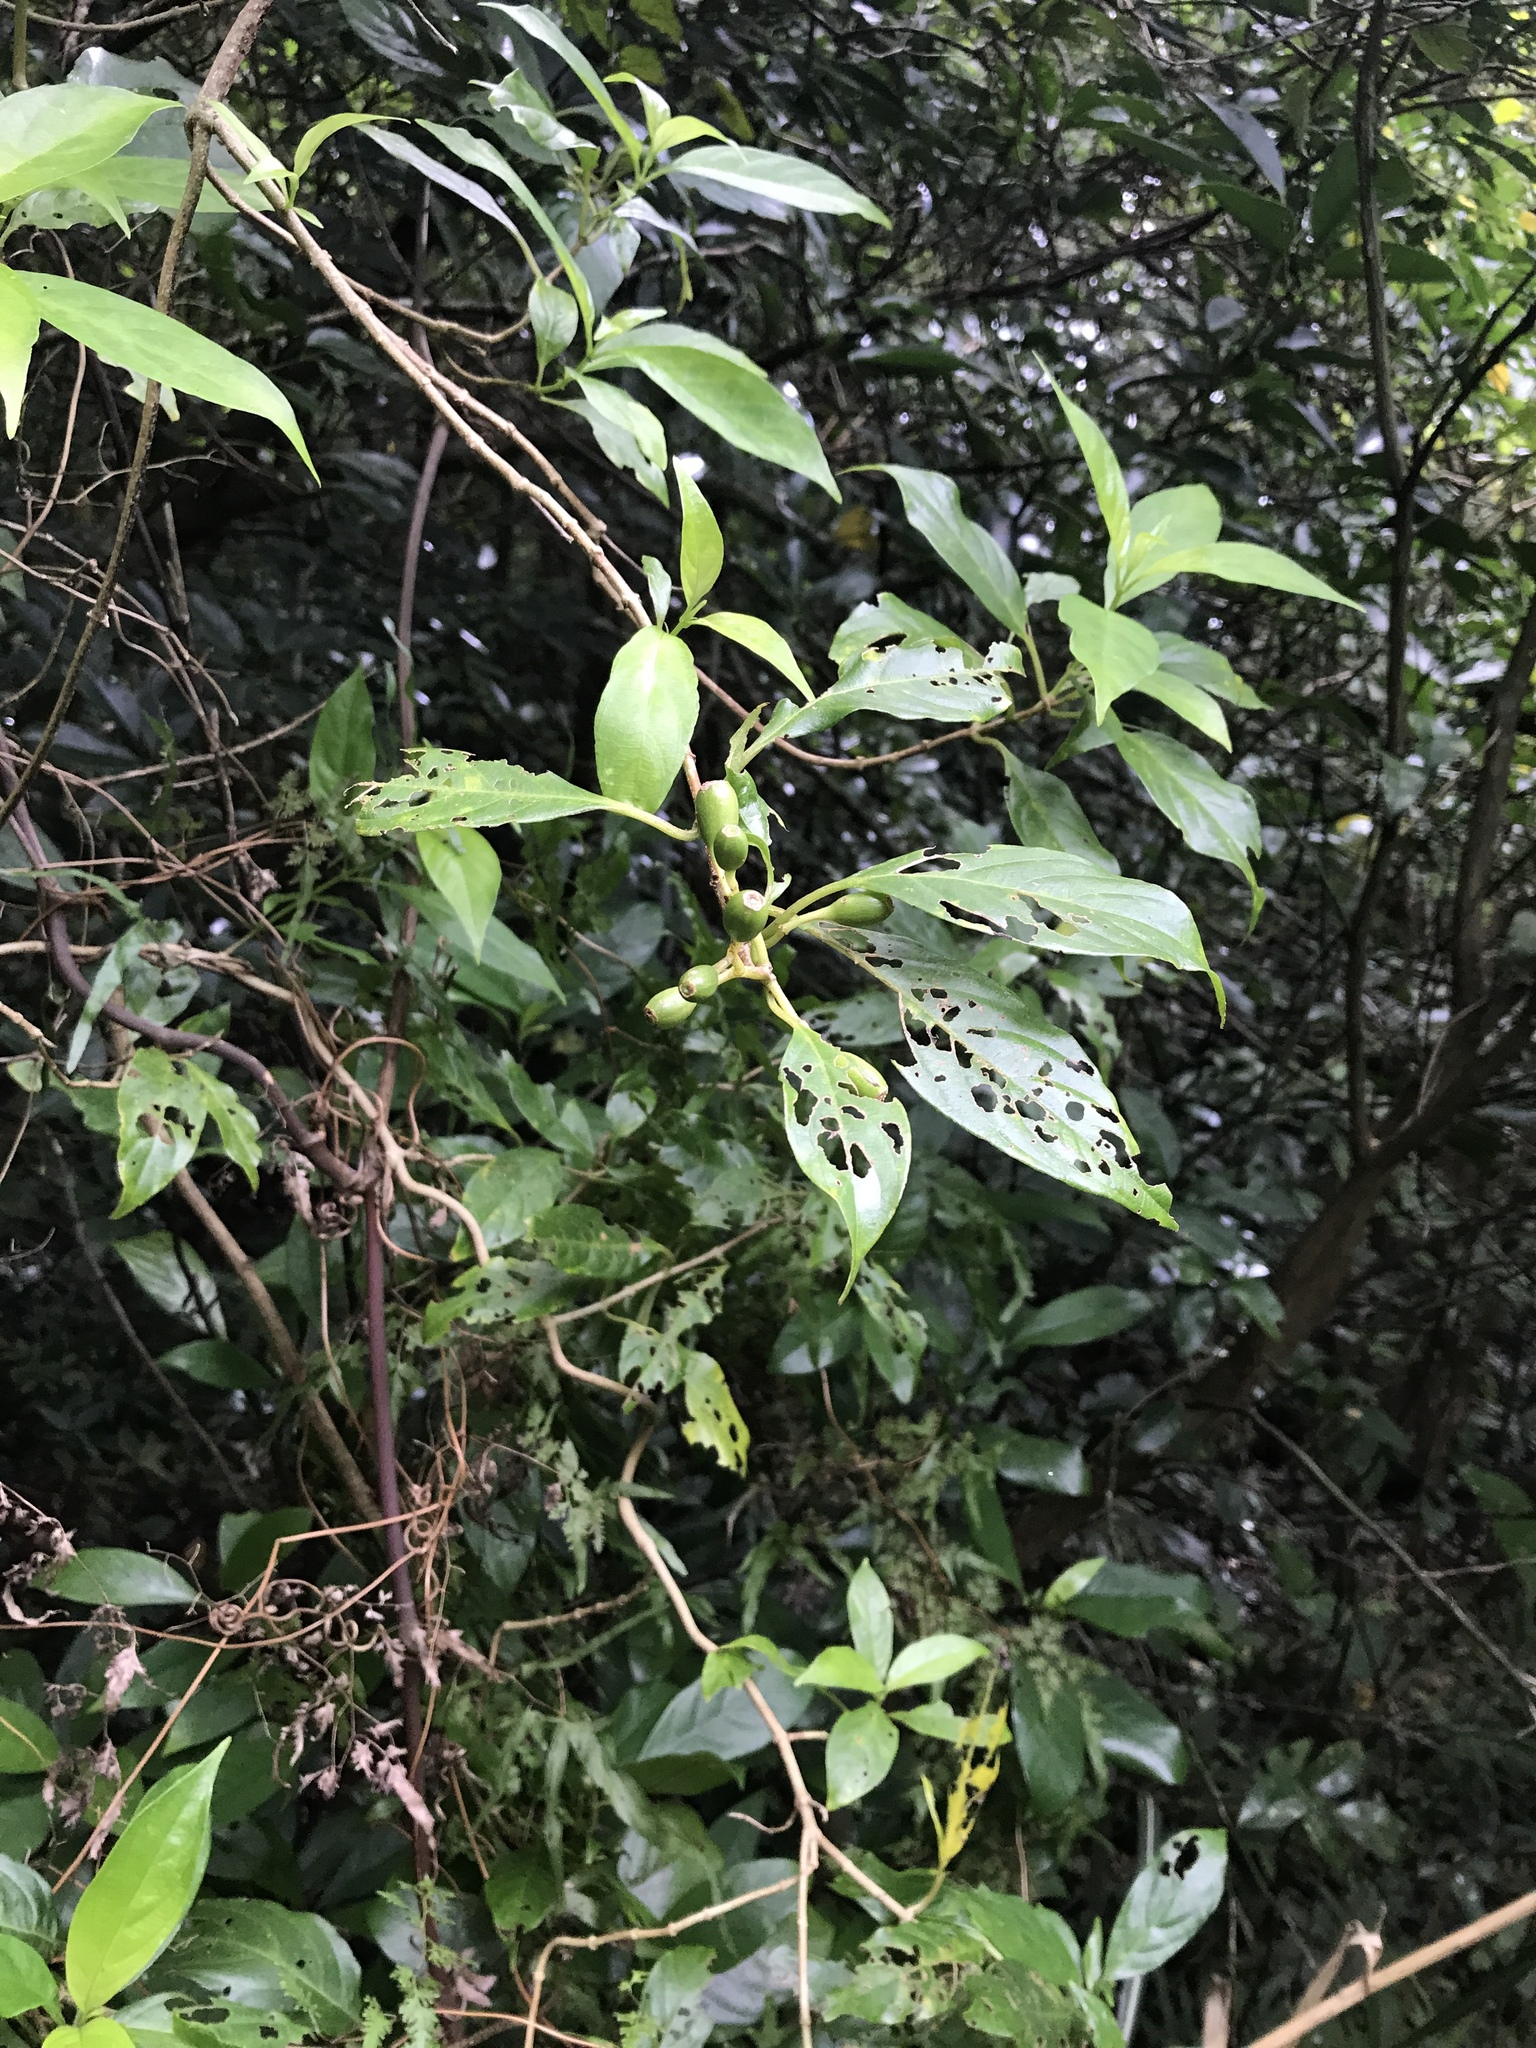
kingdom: Plantae
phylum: Tracheophyta
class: Magnoliopsida
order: Gentianales
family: Rubiaceae
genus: Mussaenda
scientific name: Mussaenda parviflora
